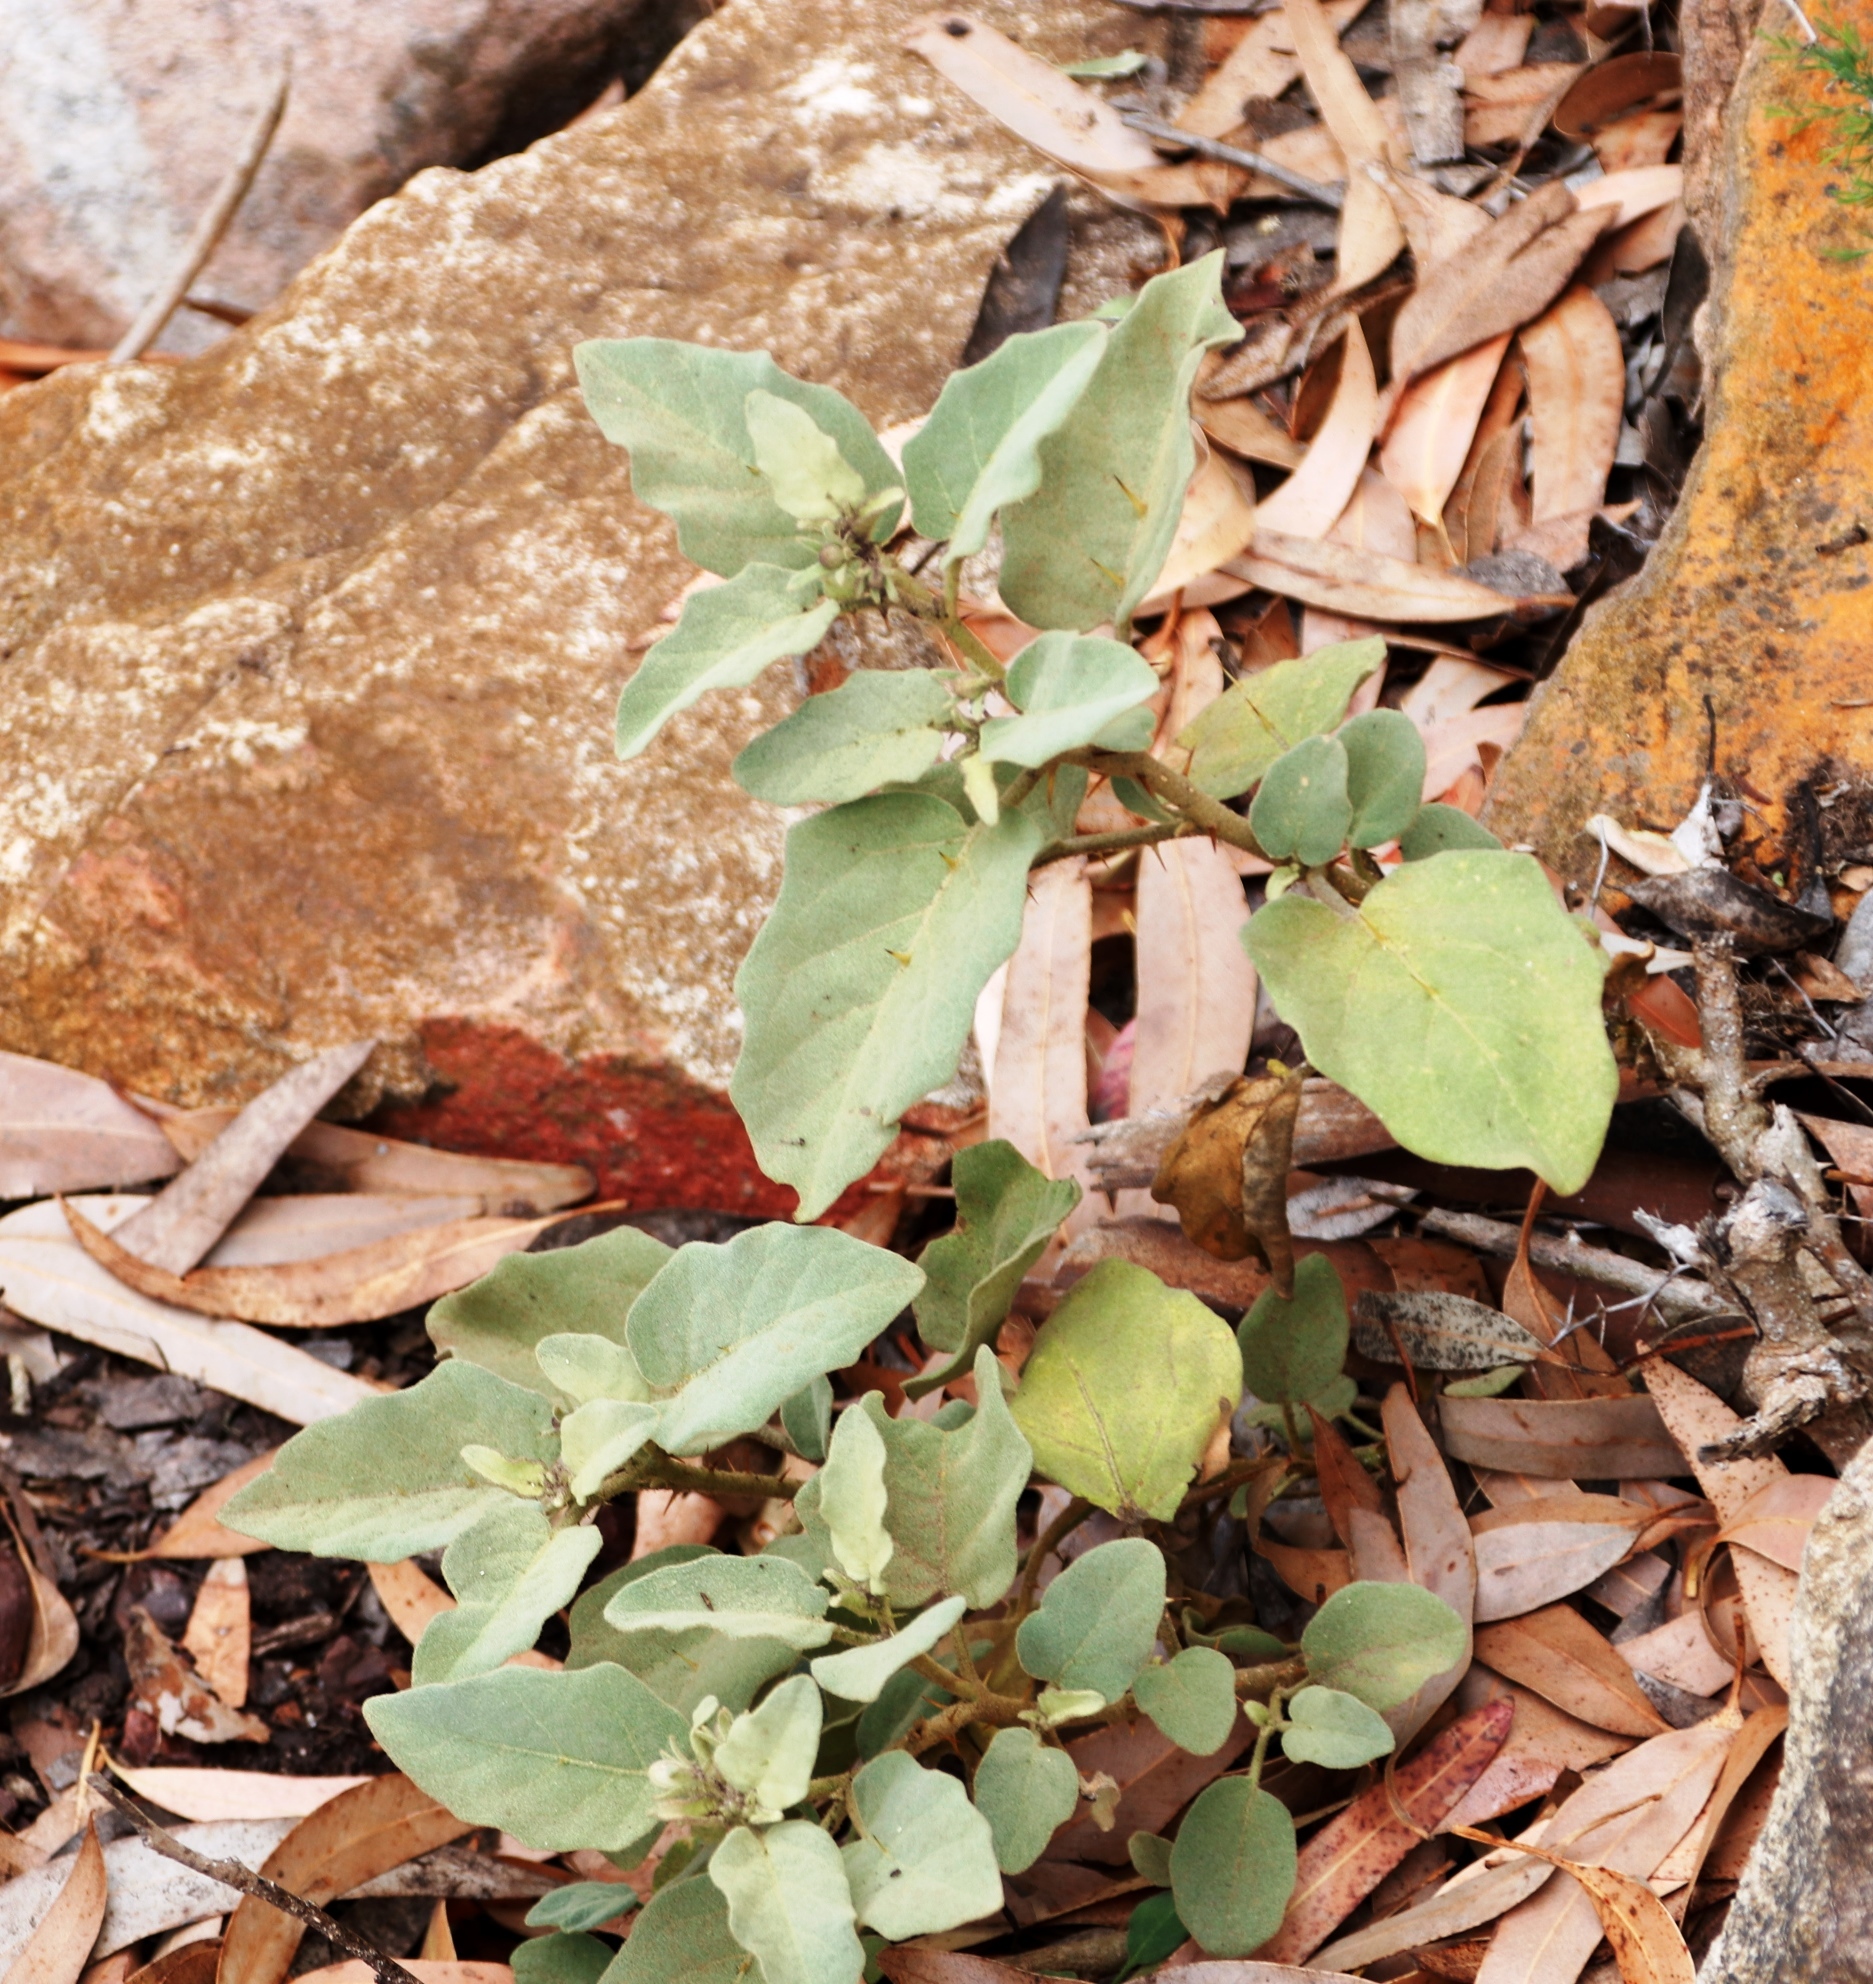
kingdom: Plantae
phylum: Tracheophyta
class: Magnoliopsida
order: Solanales
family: Solanaceae
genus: Solanum
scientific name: Solanum tomentosum
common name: Wild aubergine
